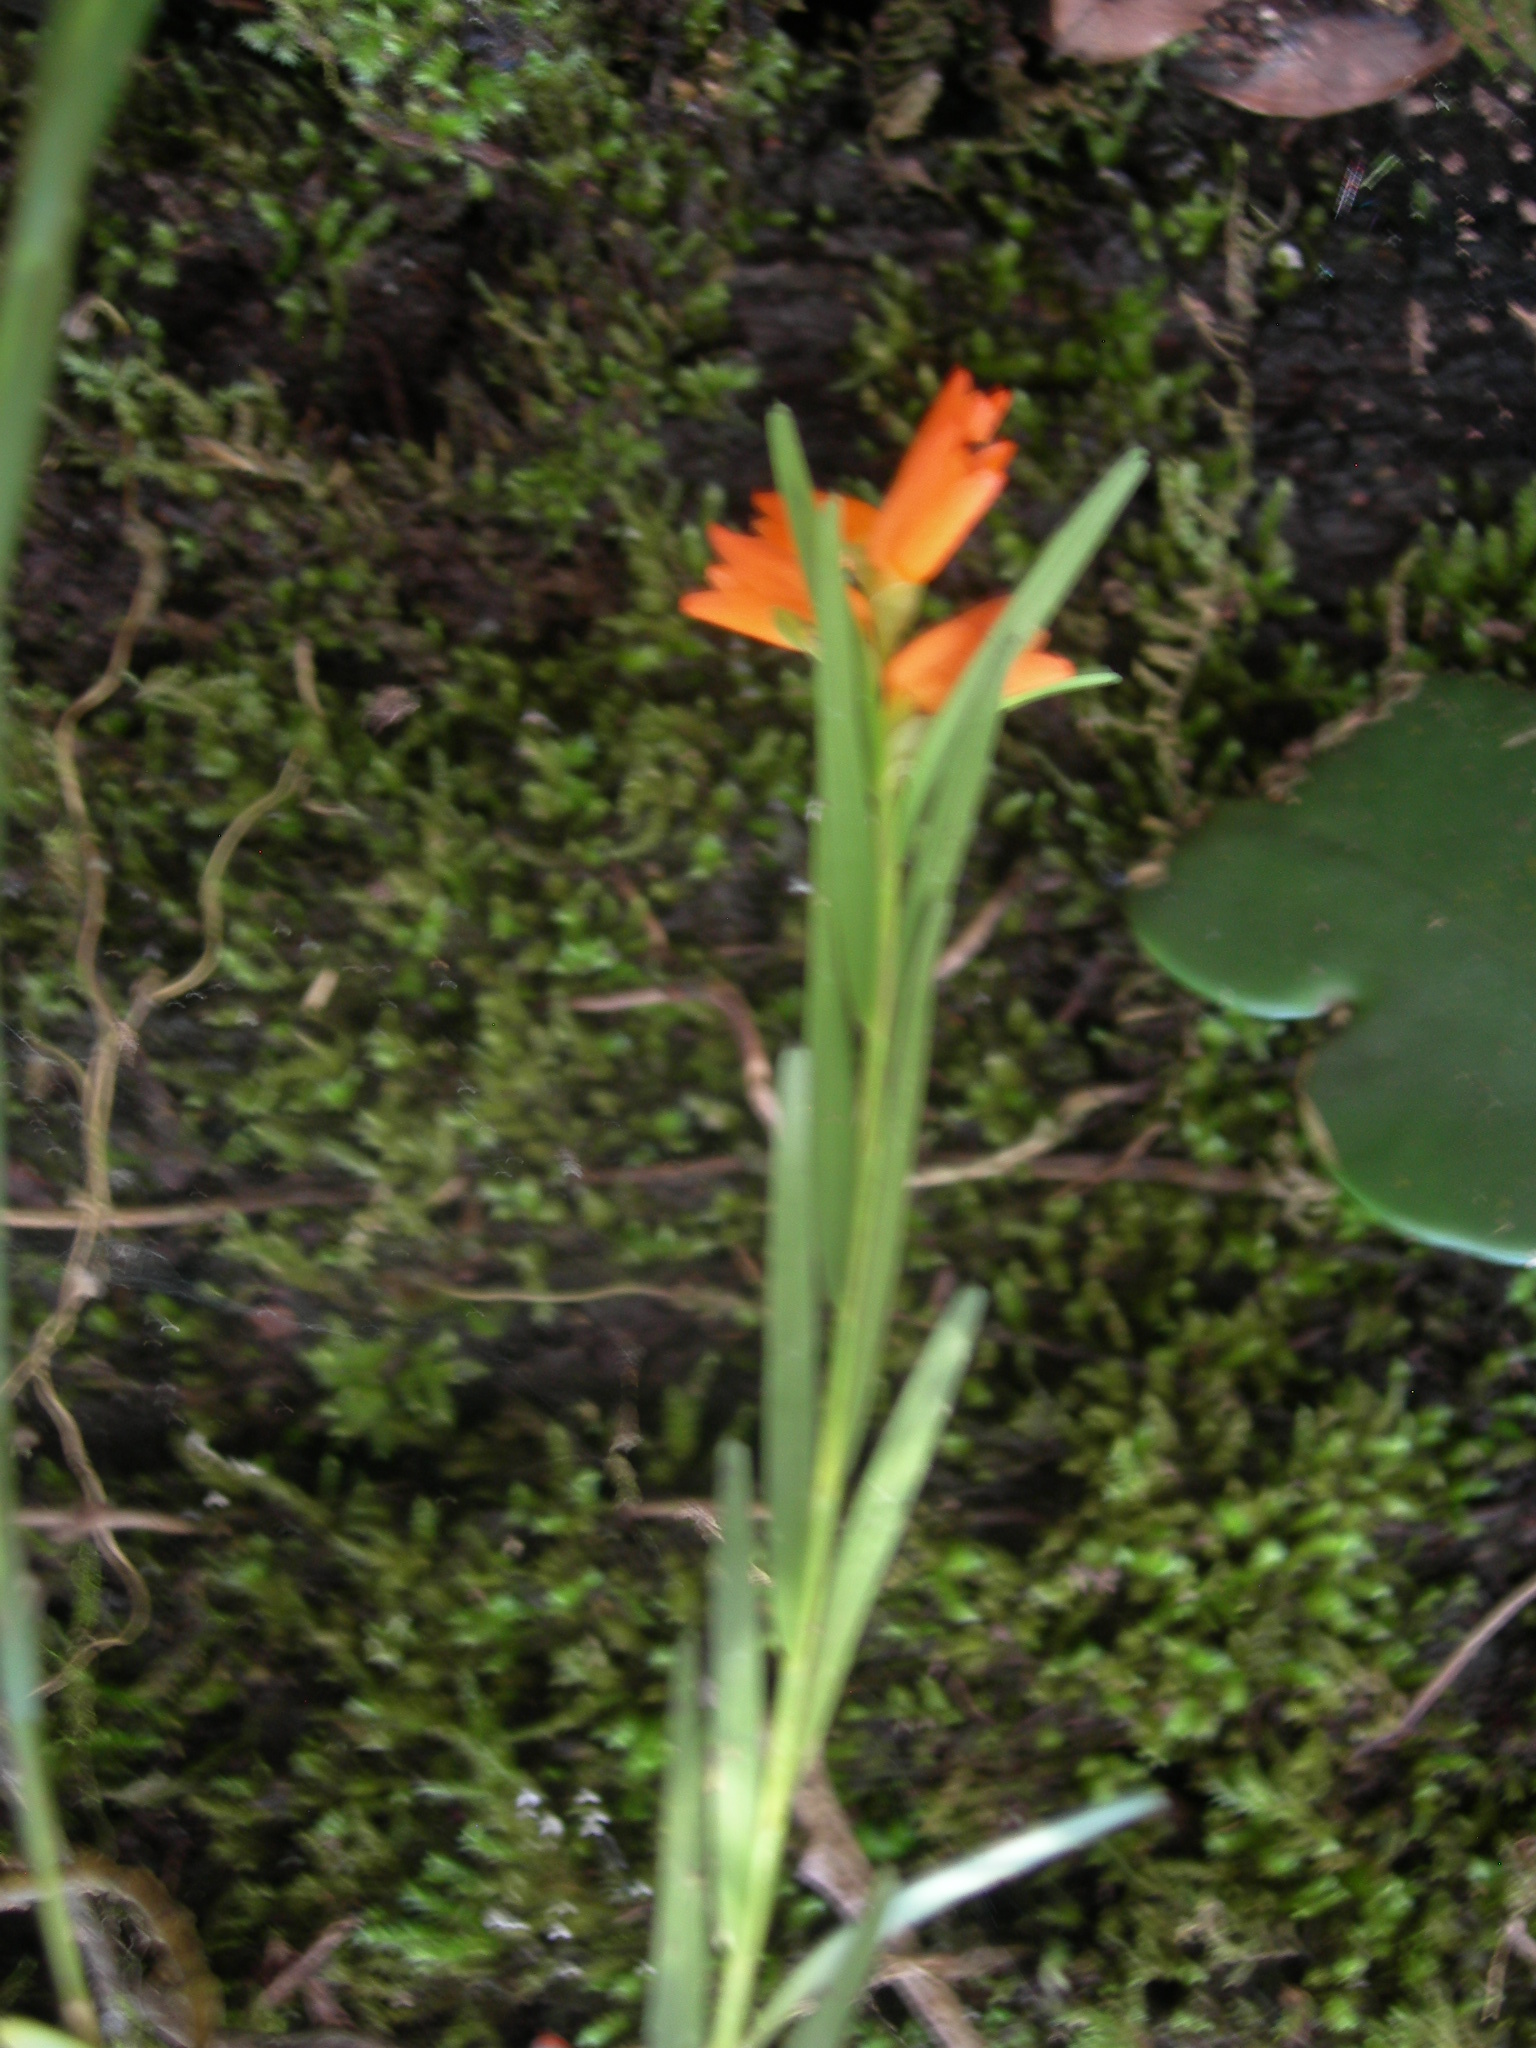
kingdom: Plantae
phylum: Tracheophyta
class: Liliopsida
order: Asparagales
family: Orchidaceae
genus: Isochilus
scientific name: Isochilus aurantiacus
